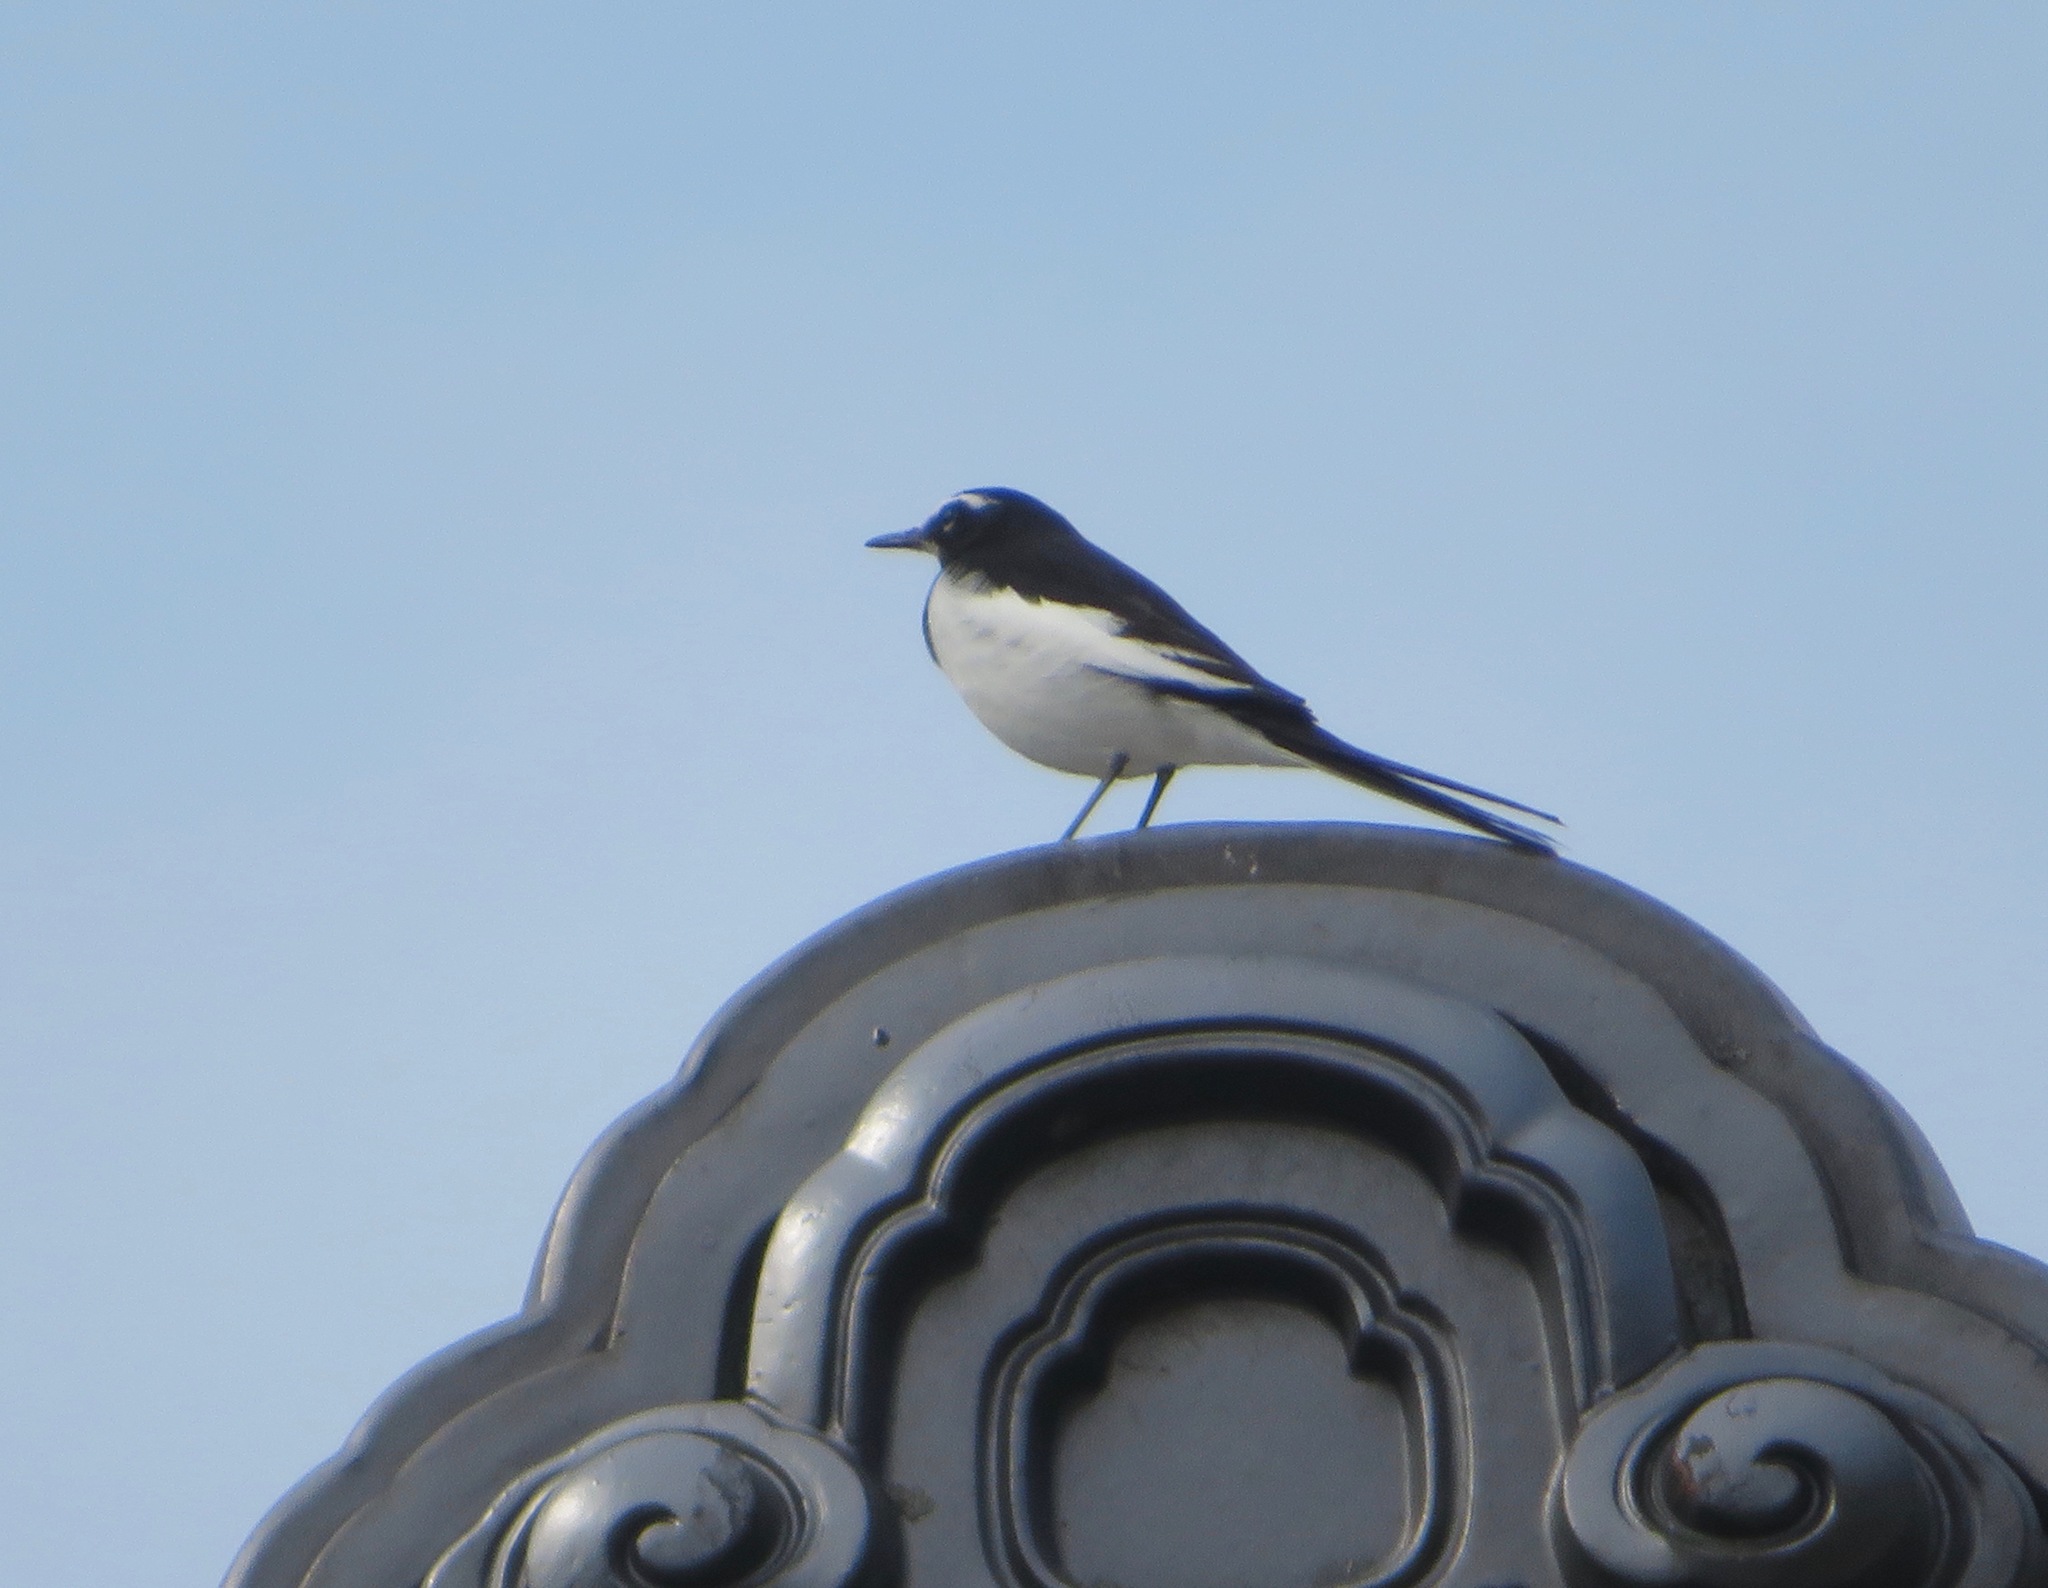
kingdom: Animalia
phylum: Chordata
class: Aves
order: Passeriformes
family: Motacillidae
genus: Motacilla
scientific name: Motacilla grandis
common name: Japanese wagtail
